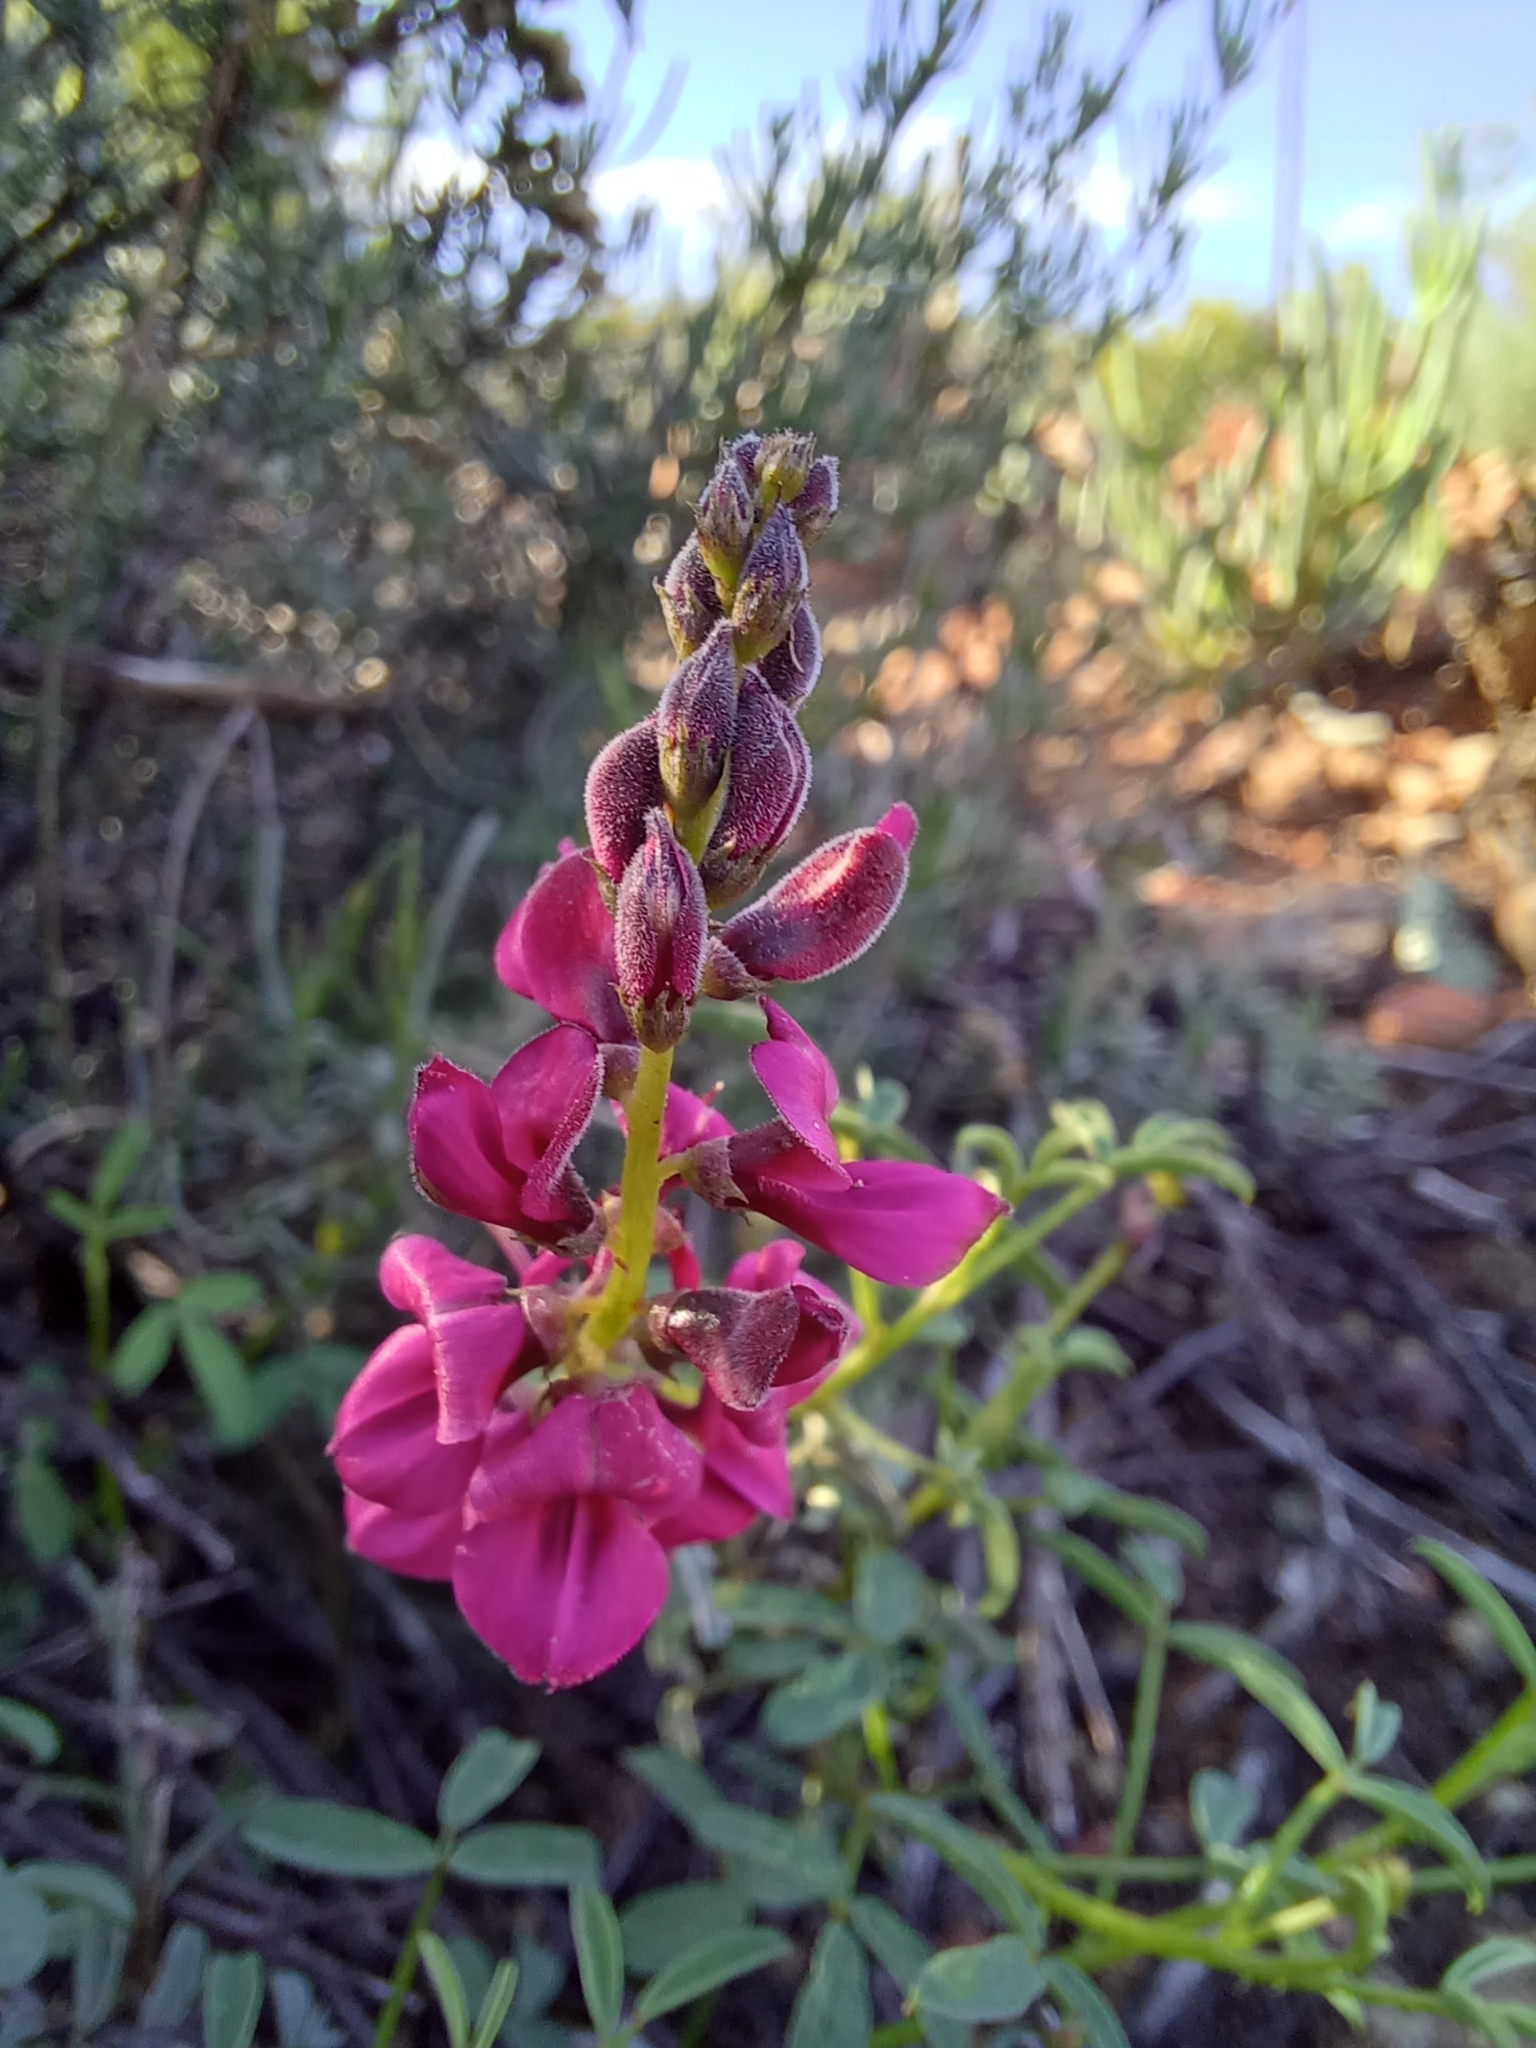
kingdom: Plantae
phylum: Tracheophyta
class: Magnoliopsida
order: Fabales
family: Fabaceae
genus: Indigofera
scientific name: Indigofera heterophylla
